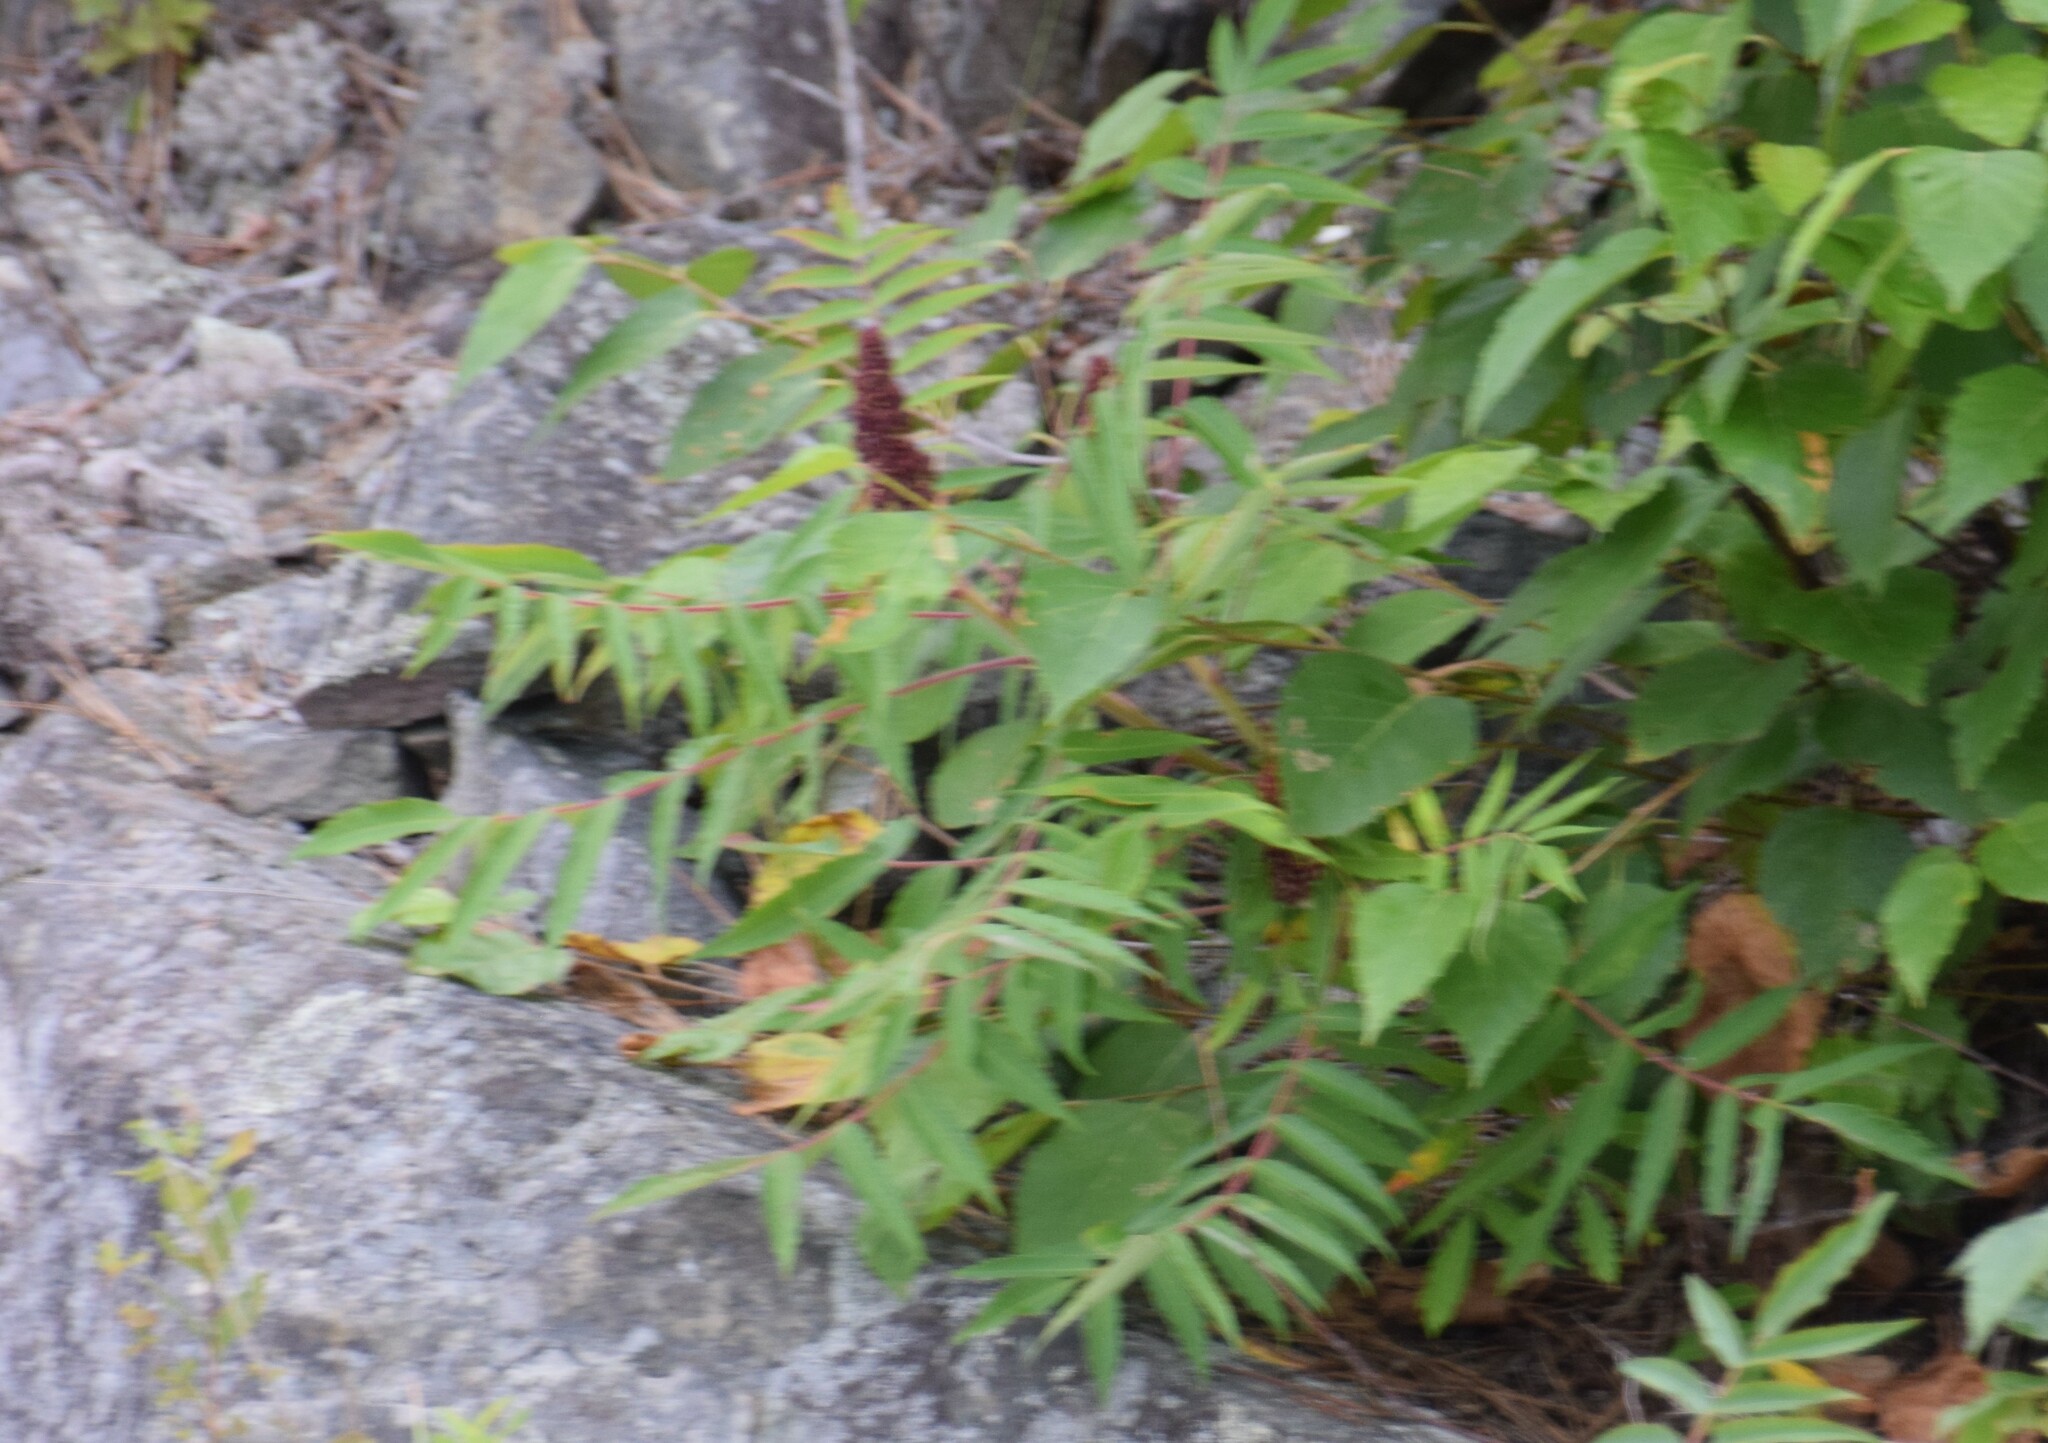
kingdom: Plantae
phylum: Tracheophyta
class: Magnoliopsida
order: Sapindales
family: Anacardiaceae
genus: Rhus
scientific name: Rhus typhina
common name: Staghorn sumac
